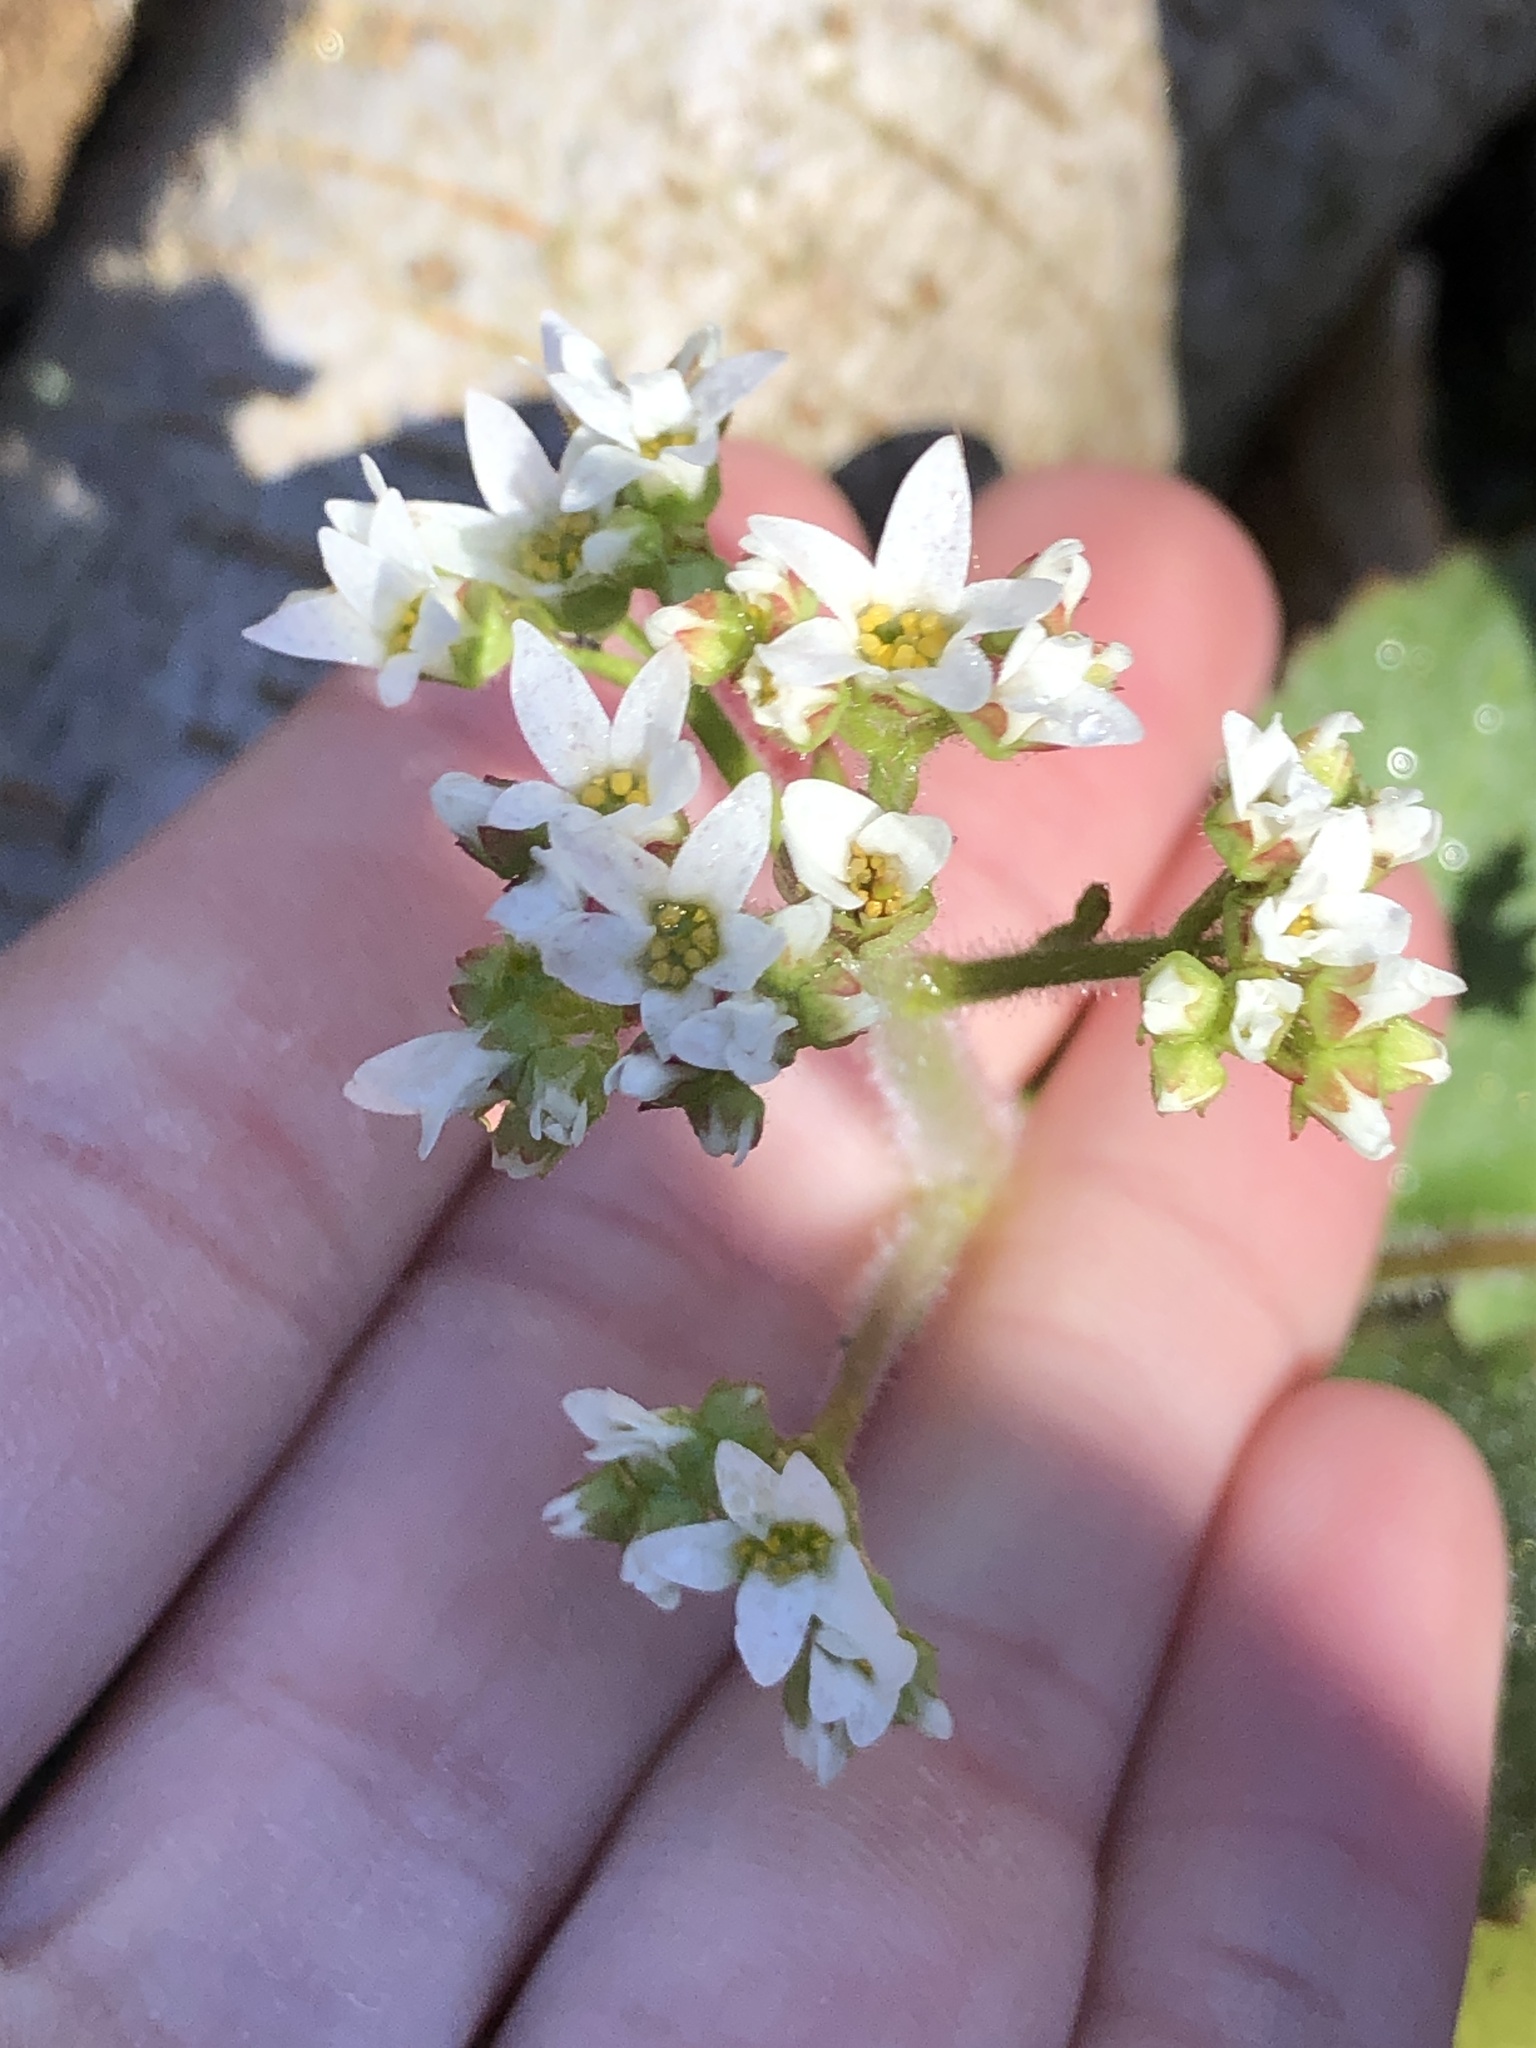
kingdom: Plantae
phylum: Tracheophyta
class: Magnoliopsida
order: Saxifragales
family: Saxifragaceae
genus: Micranthes
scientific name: Micranthes virginiensis
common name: Early saxifrage
